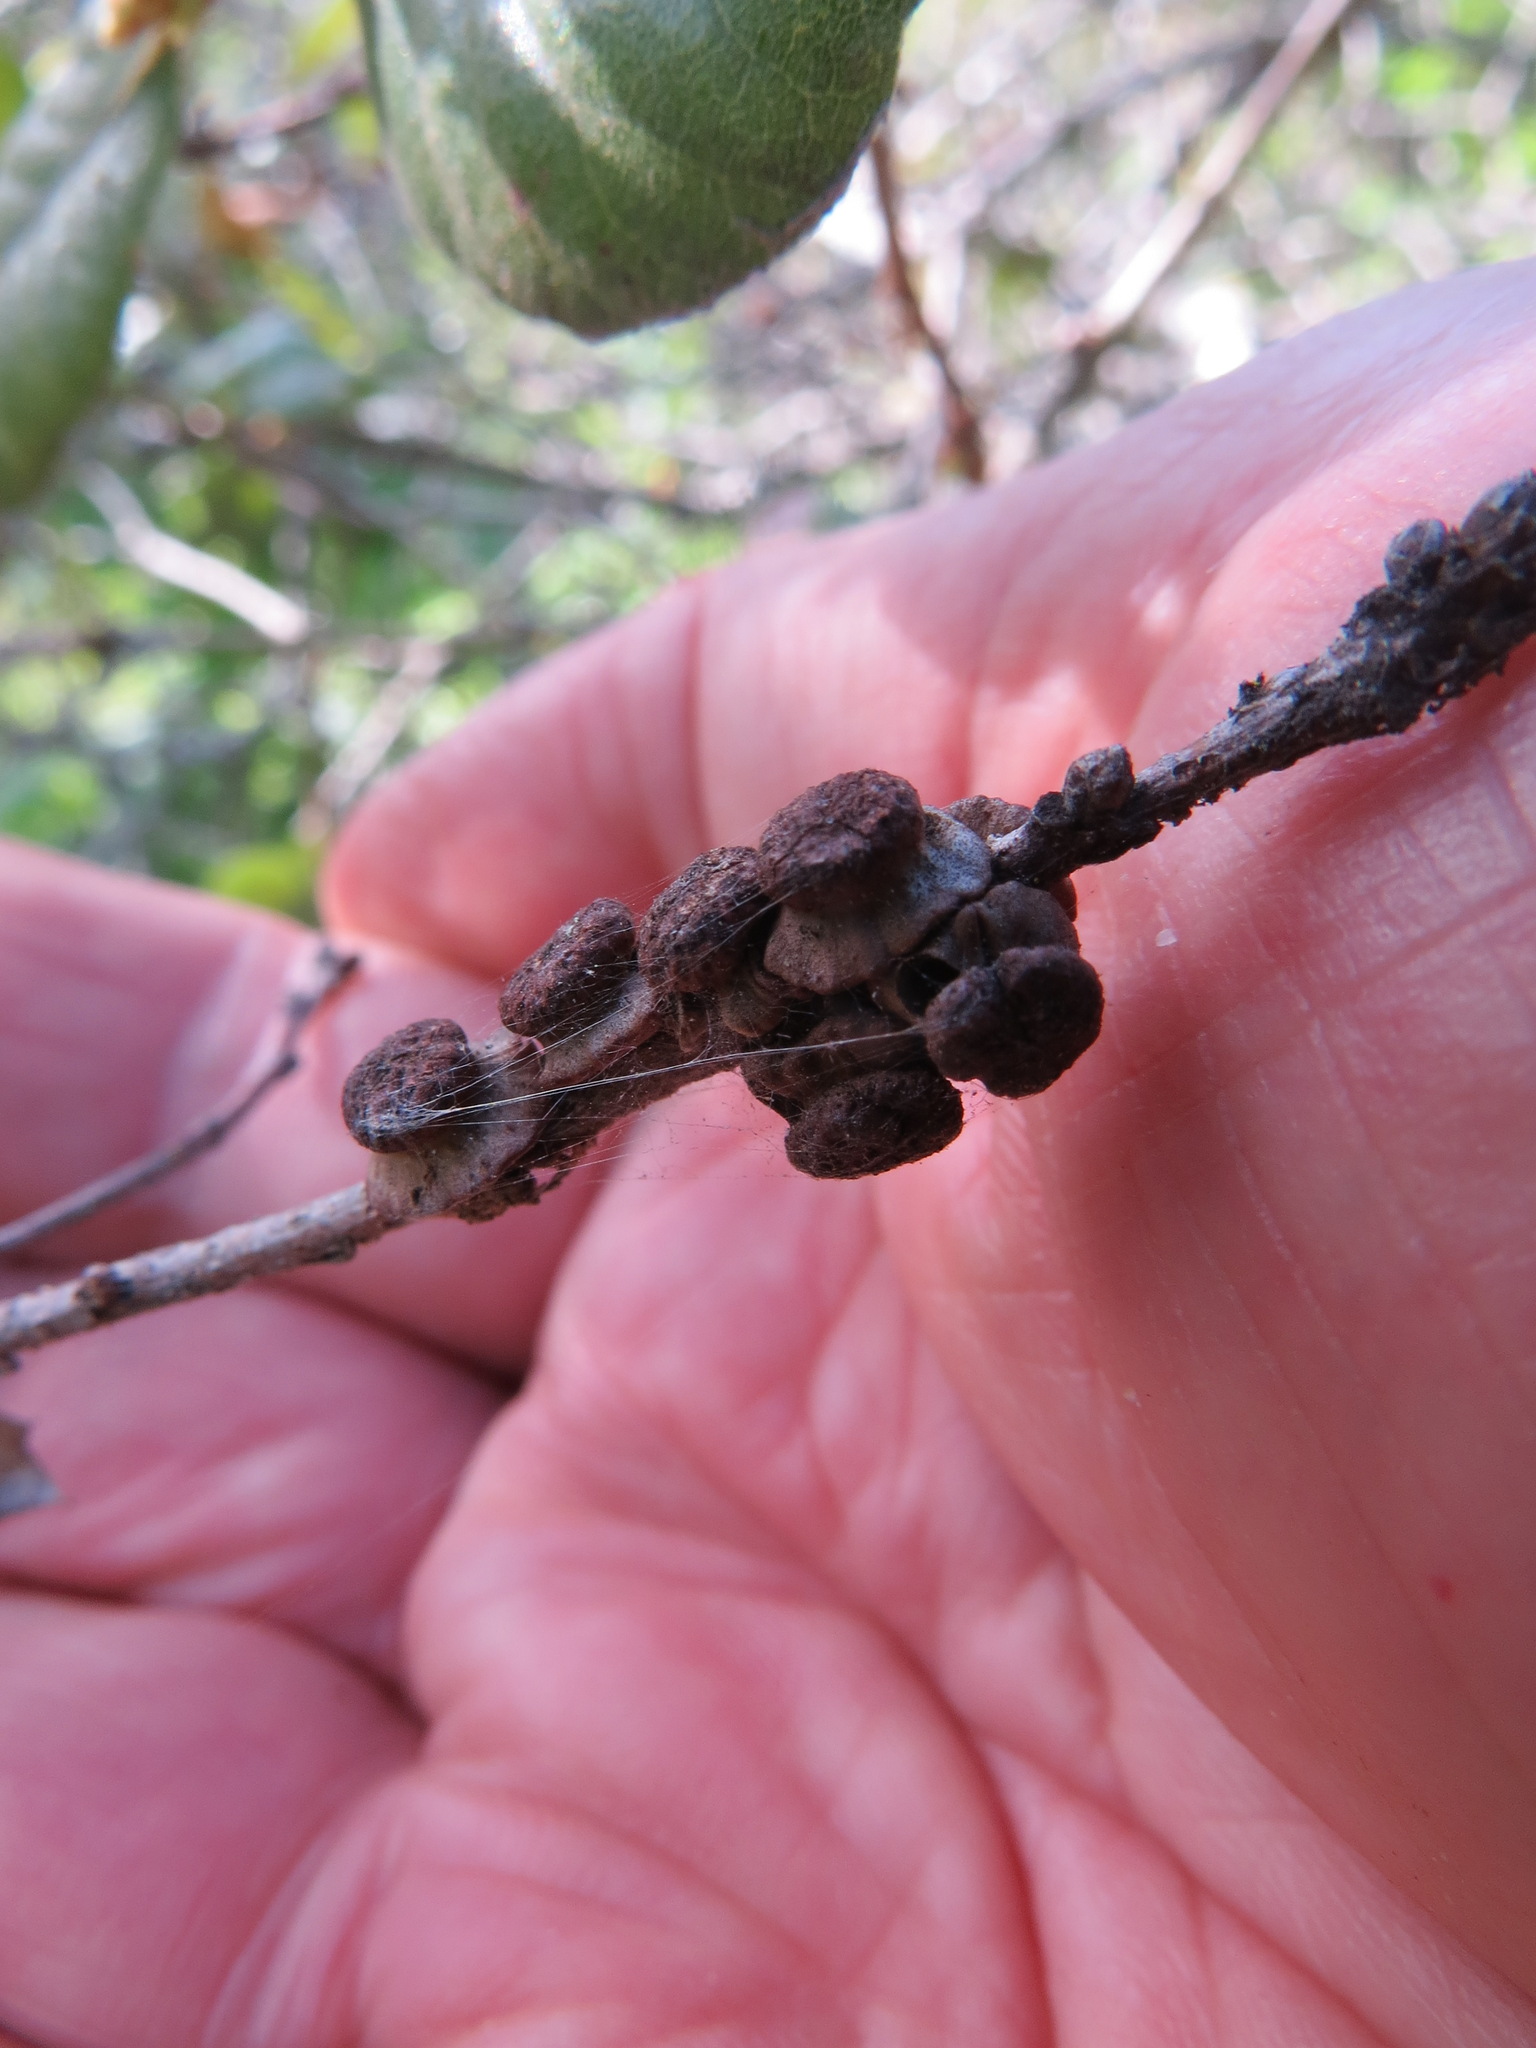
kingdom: Animalia
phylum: Arthropoda
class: Insecta
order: Hymenoptera
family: Cynipidae
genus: Disholcaspis
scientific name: Disholcaspis prehensa
